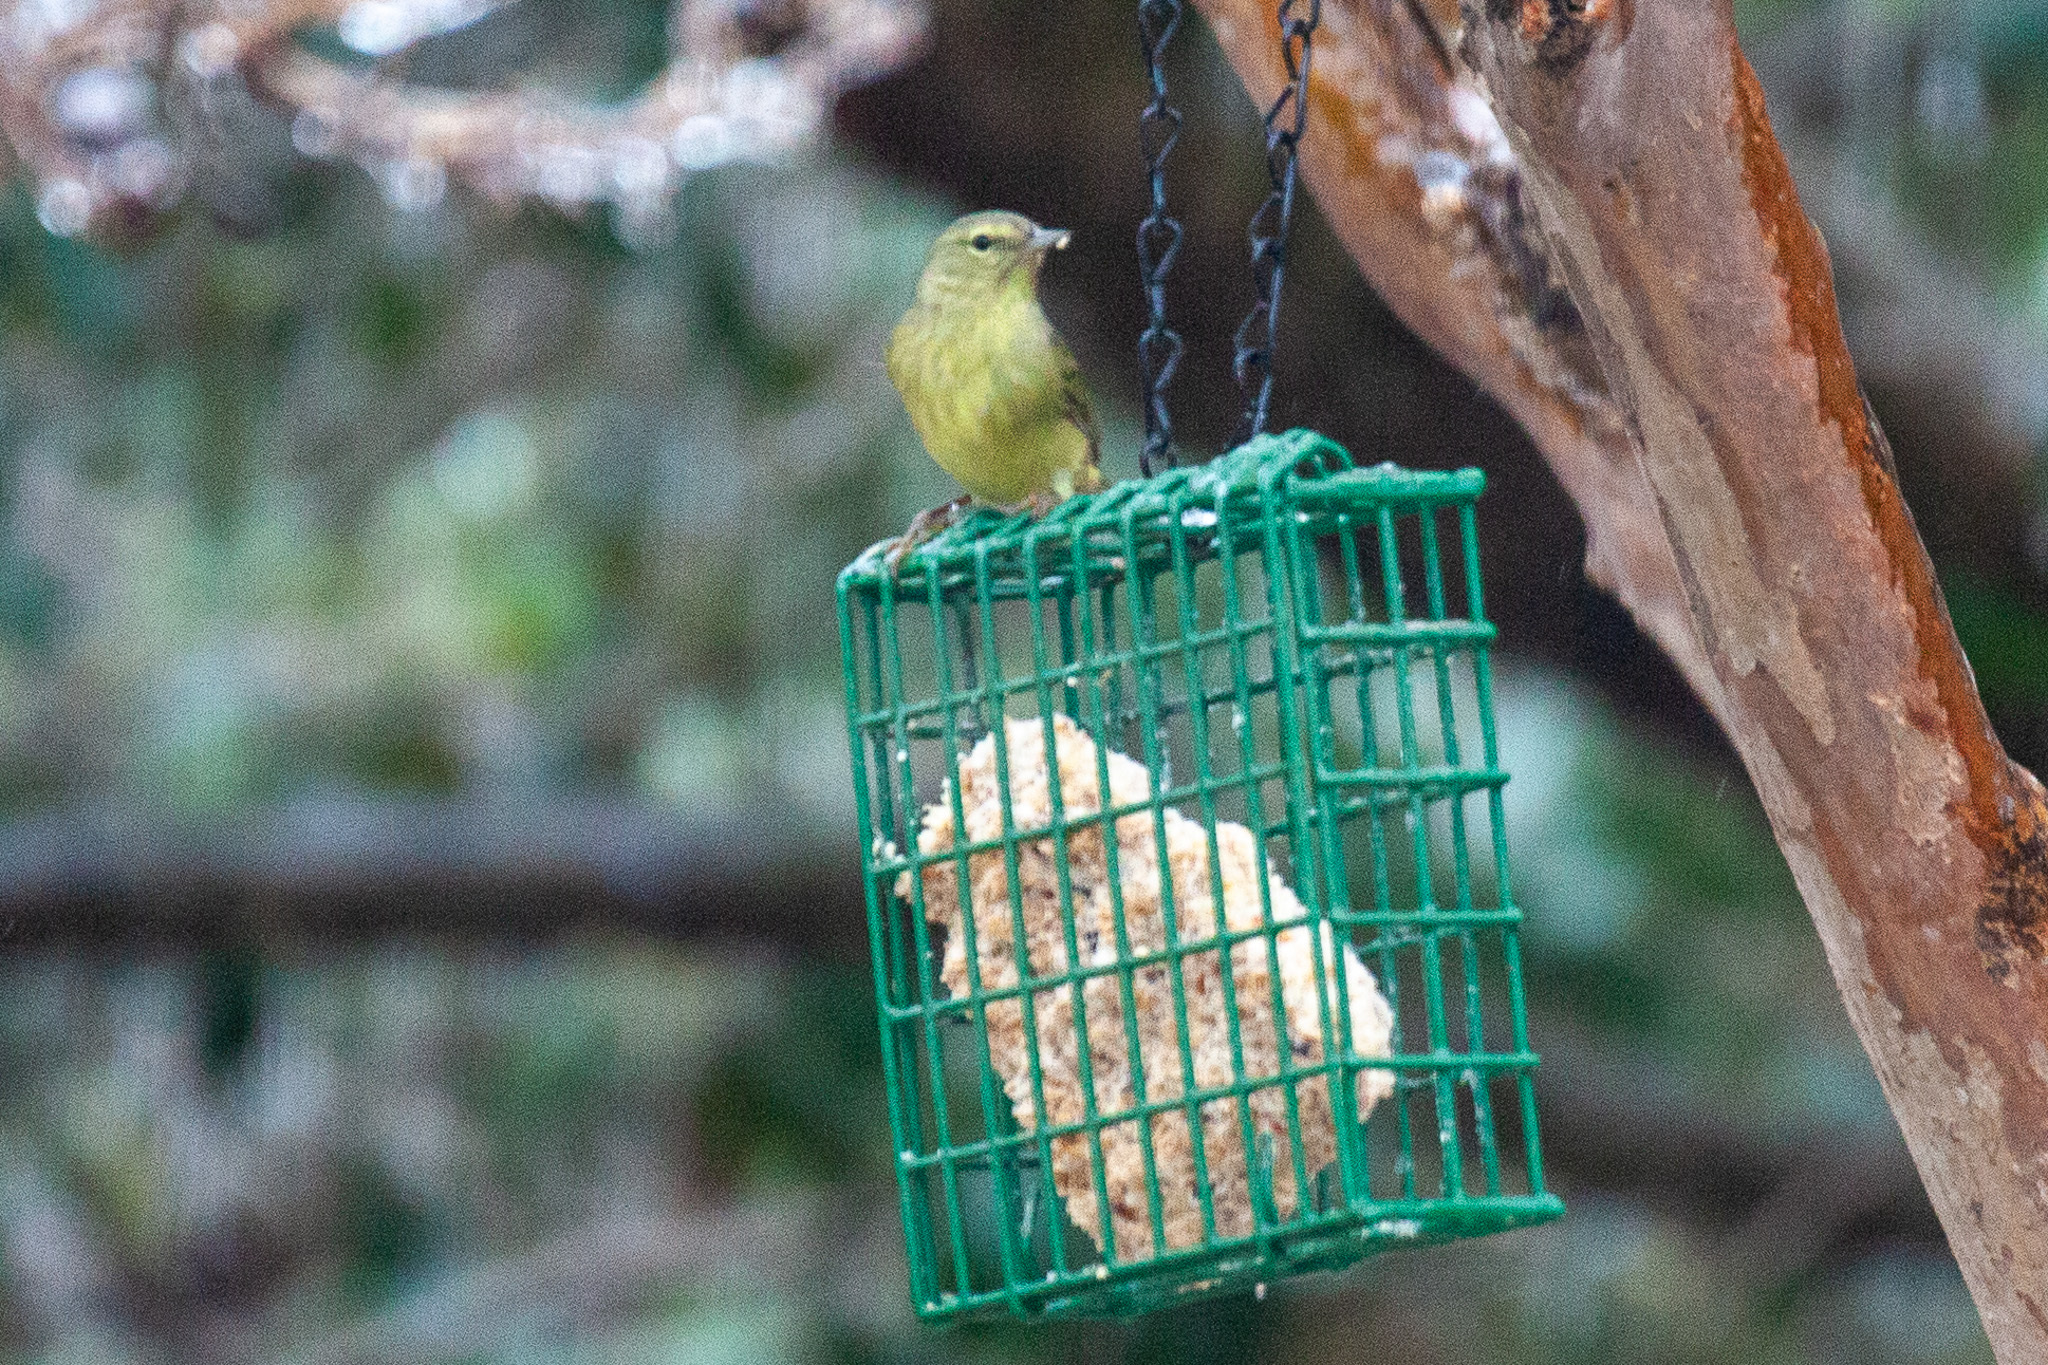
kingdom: Animalia
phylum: Chordata
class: Aves
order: Passeriformes
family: Parulidae
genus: Leiothlypis
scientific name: Leiothlypis celata
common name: Orange-crowned warbler
